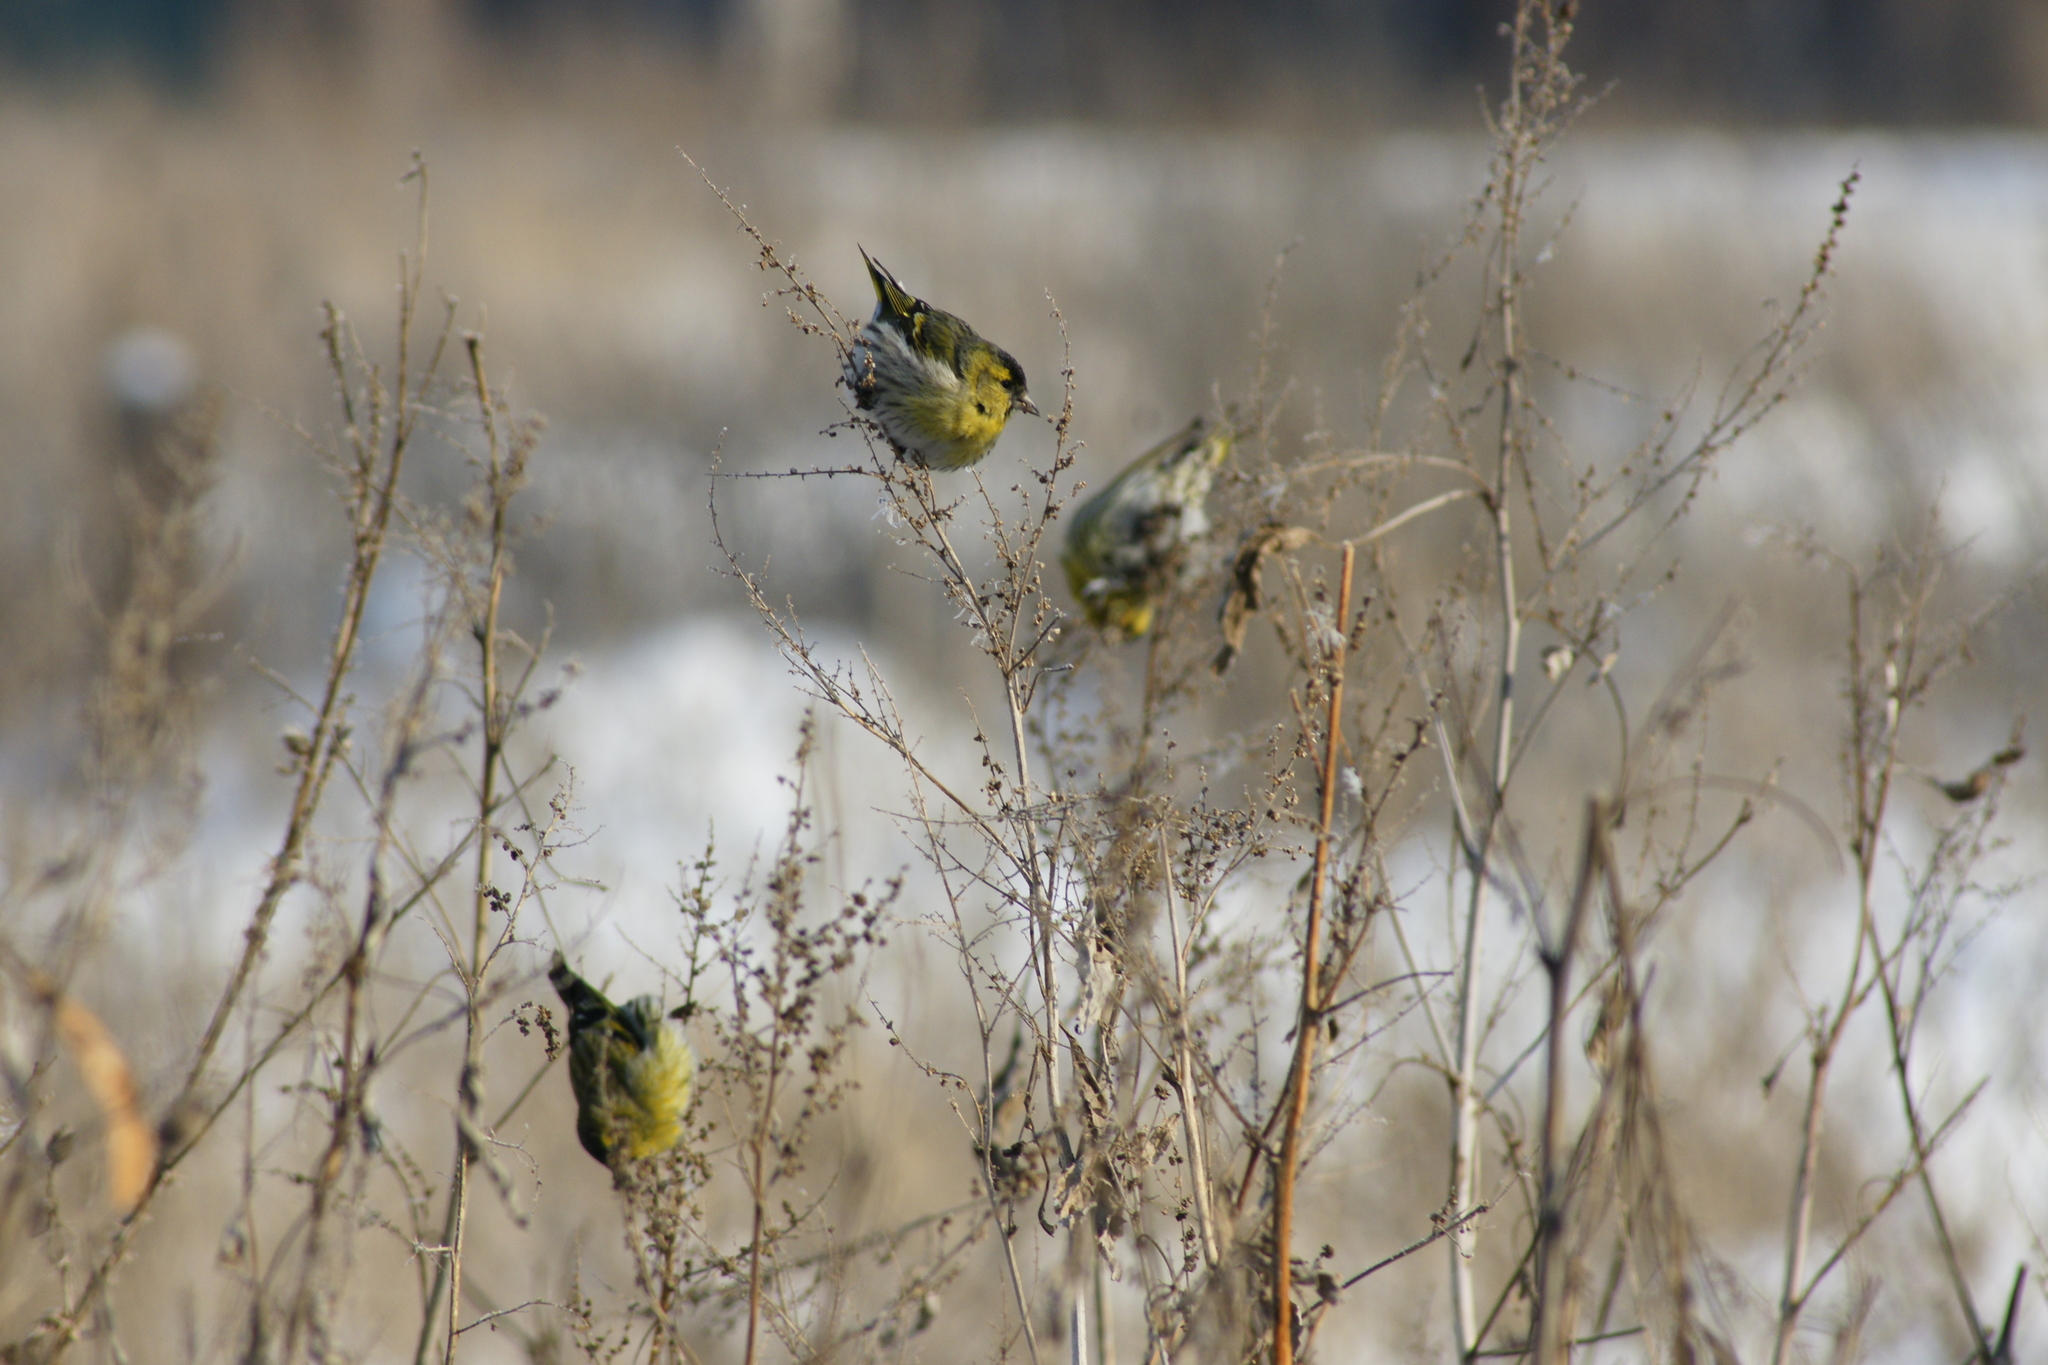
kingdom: Animalia
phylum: Chordata
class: Aves
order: Passeriformes
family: Fringillidae
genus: Spinus
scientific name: Spinus spinus
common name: Eurasian siskin
